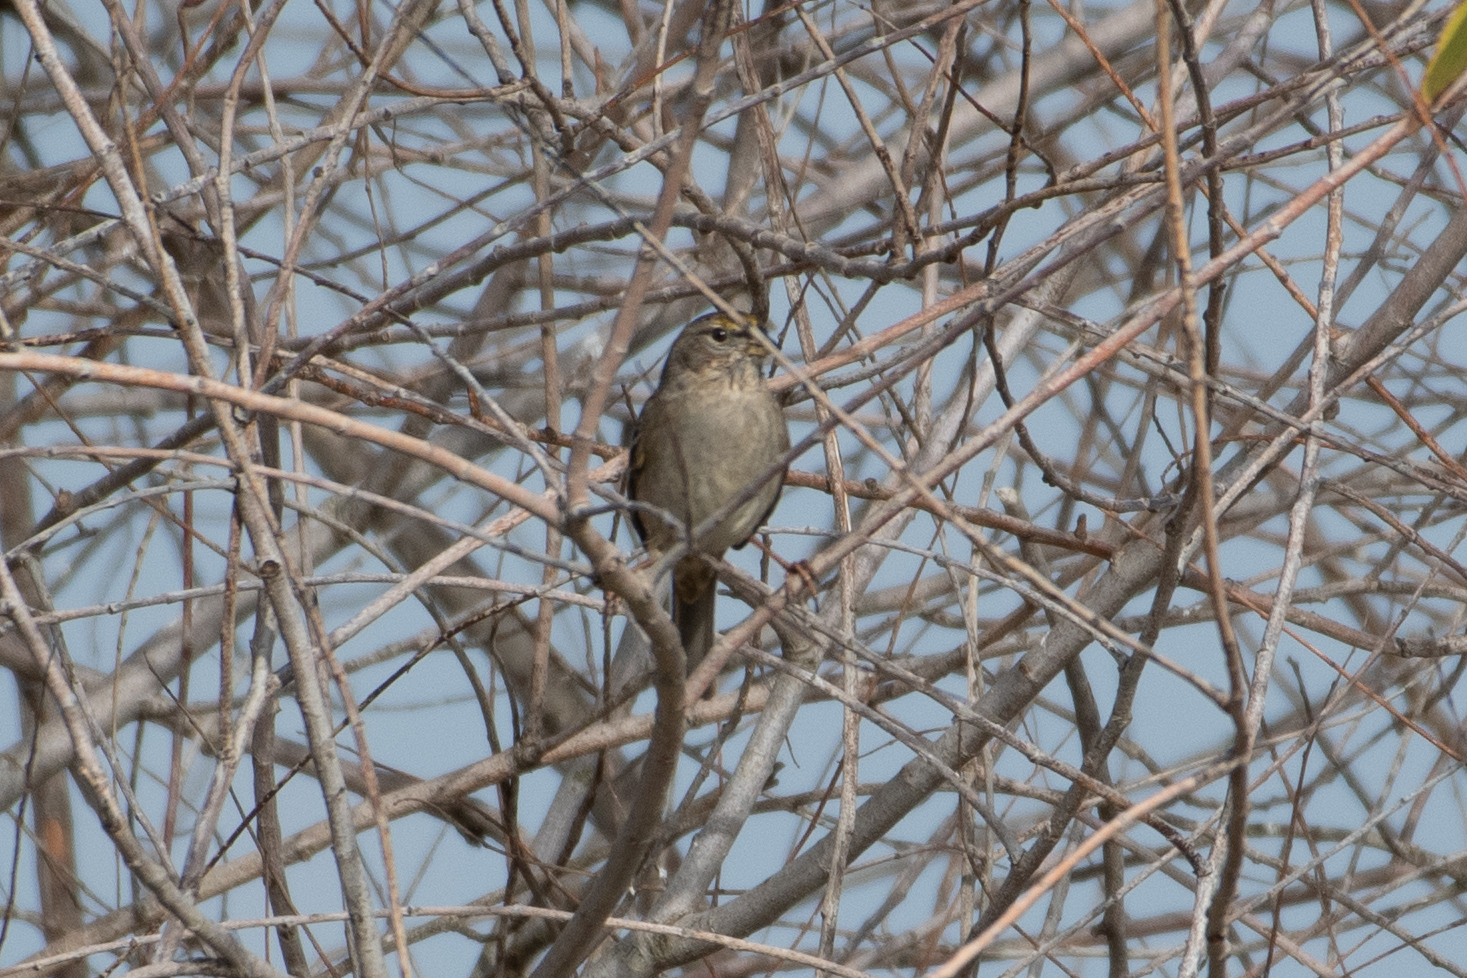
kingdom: Animalia
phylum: Chordata
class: Aves
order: Passeriformes
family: Passerellidae
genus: Zonotrichia
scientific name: Zonotrichia atricapilla
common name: Golden-crowned sparrow
